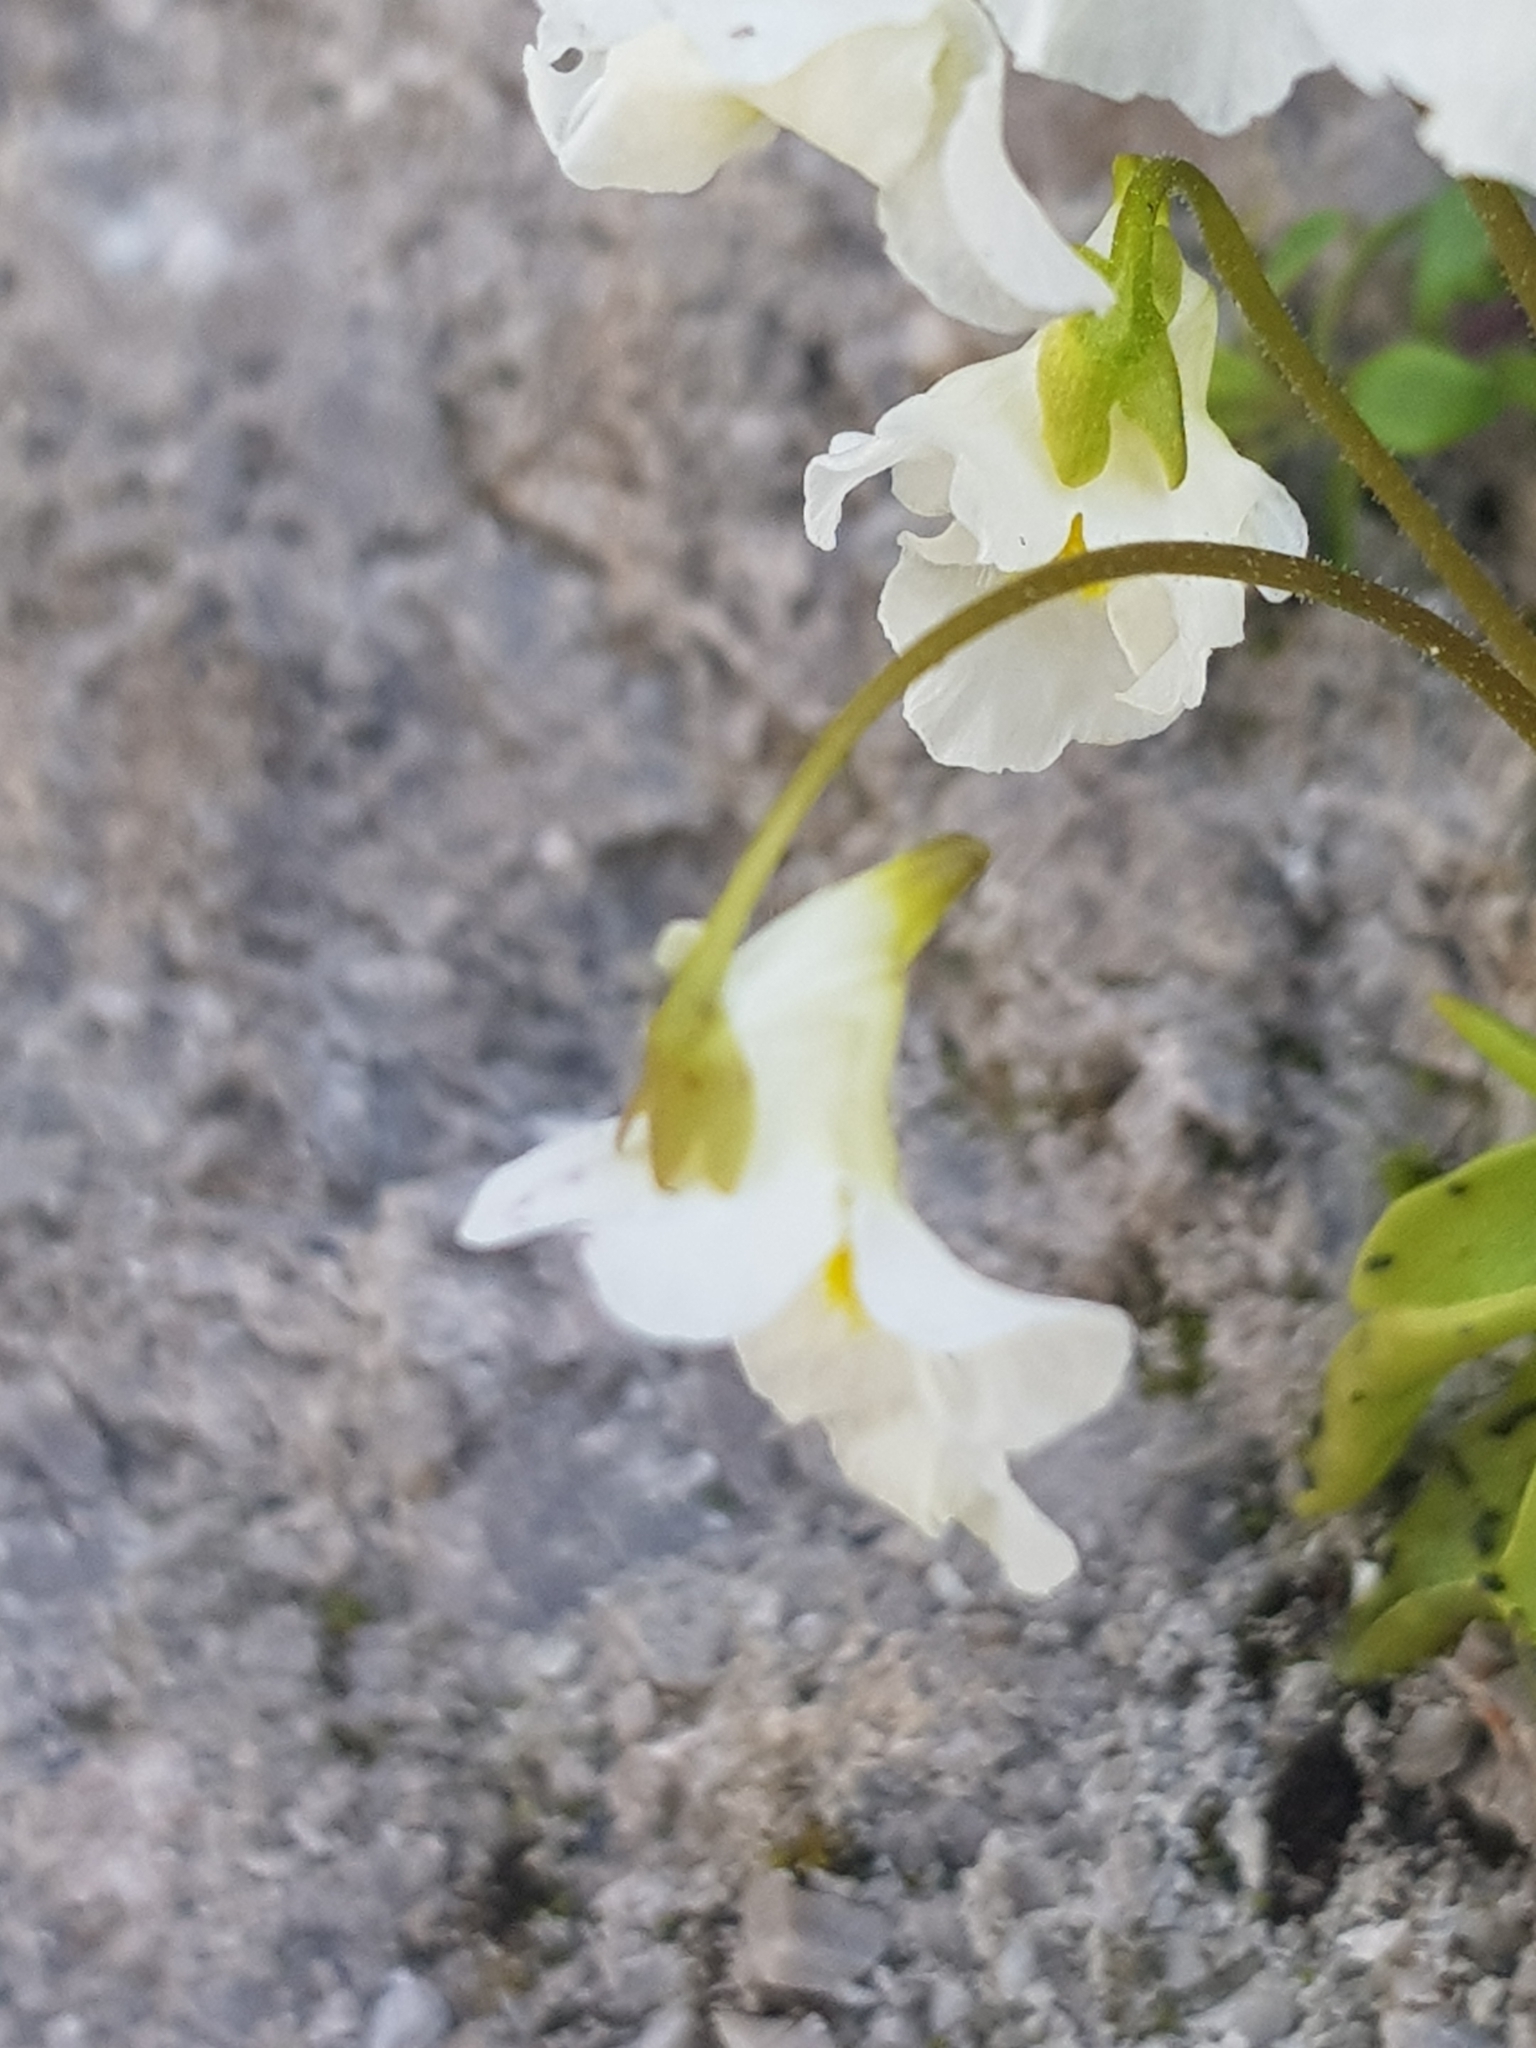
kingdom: Plantae
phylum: Tracheophyta
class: Magnoliopsida
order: Lamiales
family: Lentibulariaceae
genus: Pinguicula
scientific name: Pinguicula alpina
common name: Alpine butterwort
